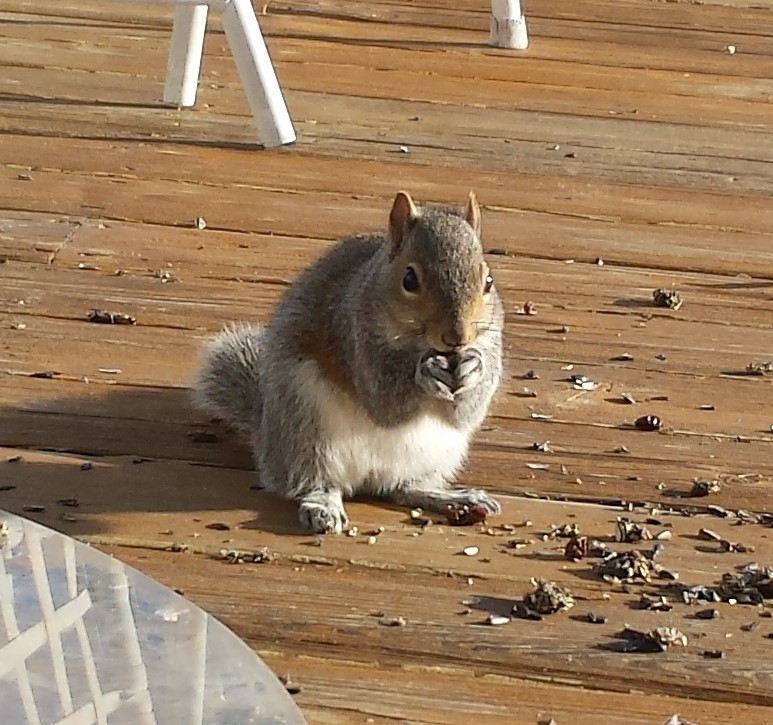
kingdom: Animalia
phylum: Chordata
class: Mammalia
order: Rodentia
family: Sciuridae
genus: Sciurus
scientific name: Sciurus carolinensis
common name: Eastern gray squirrel
